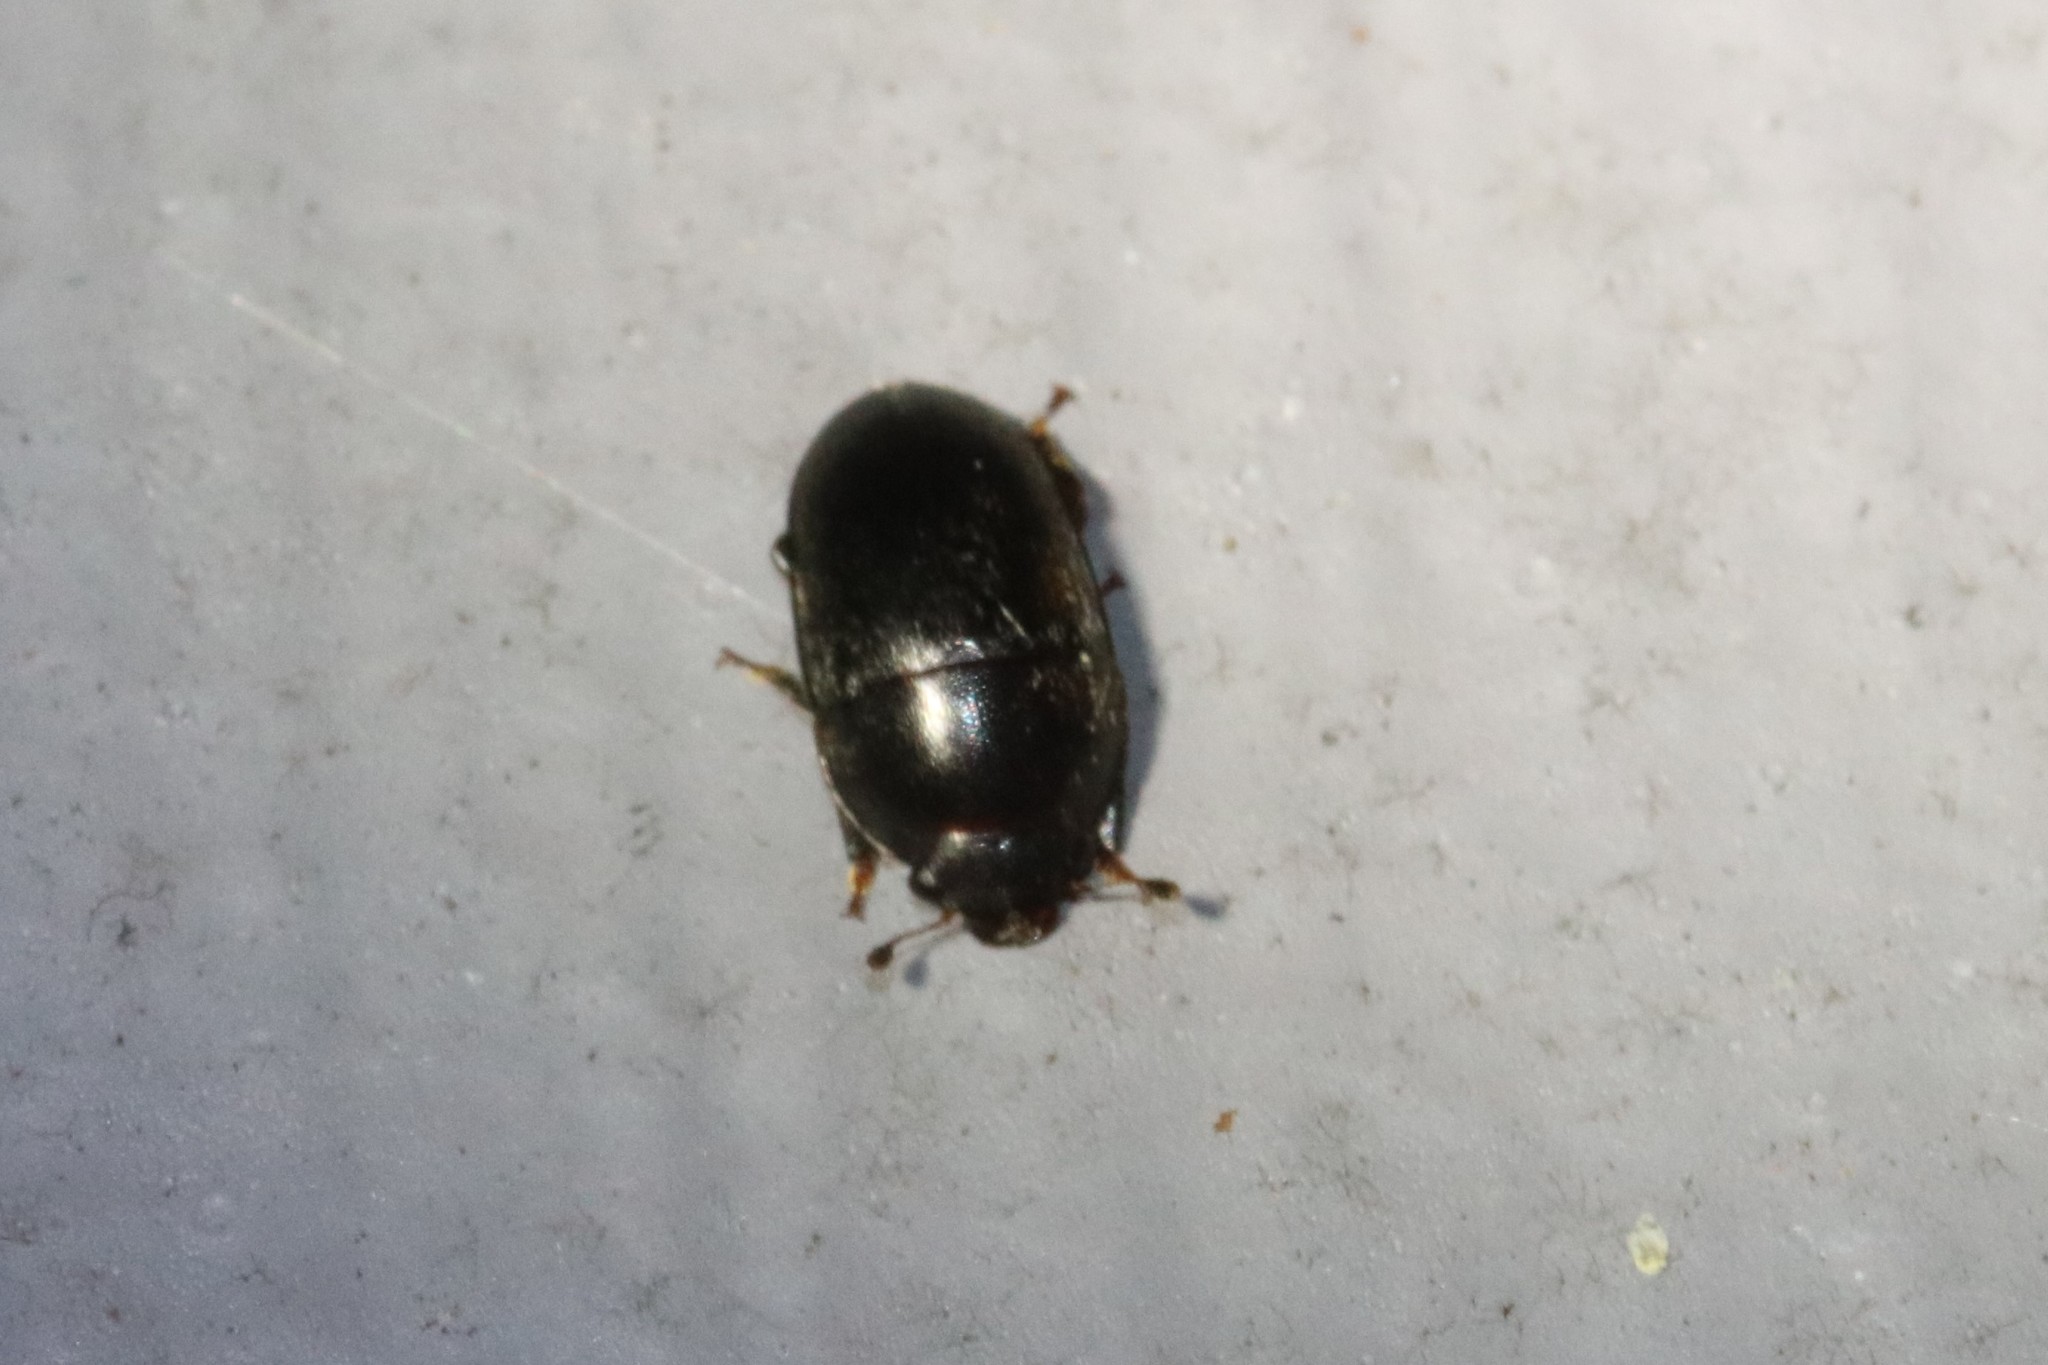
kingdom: Animalia
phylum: Arthropoda
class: Insecta
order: Coleoptera
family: Nitidulidae
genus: Cryptarcha
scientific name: Cryptarcha ampla
